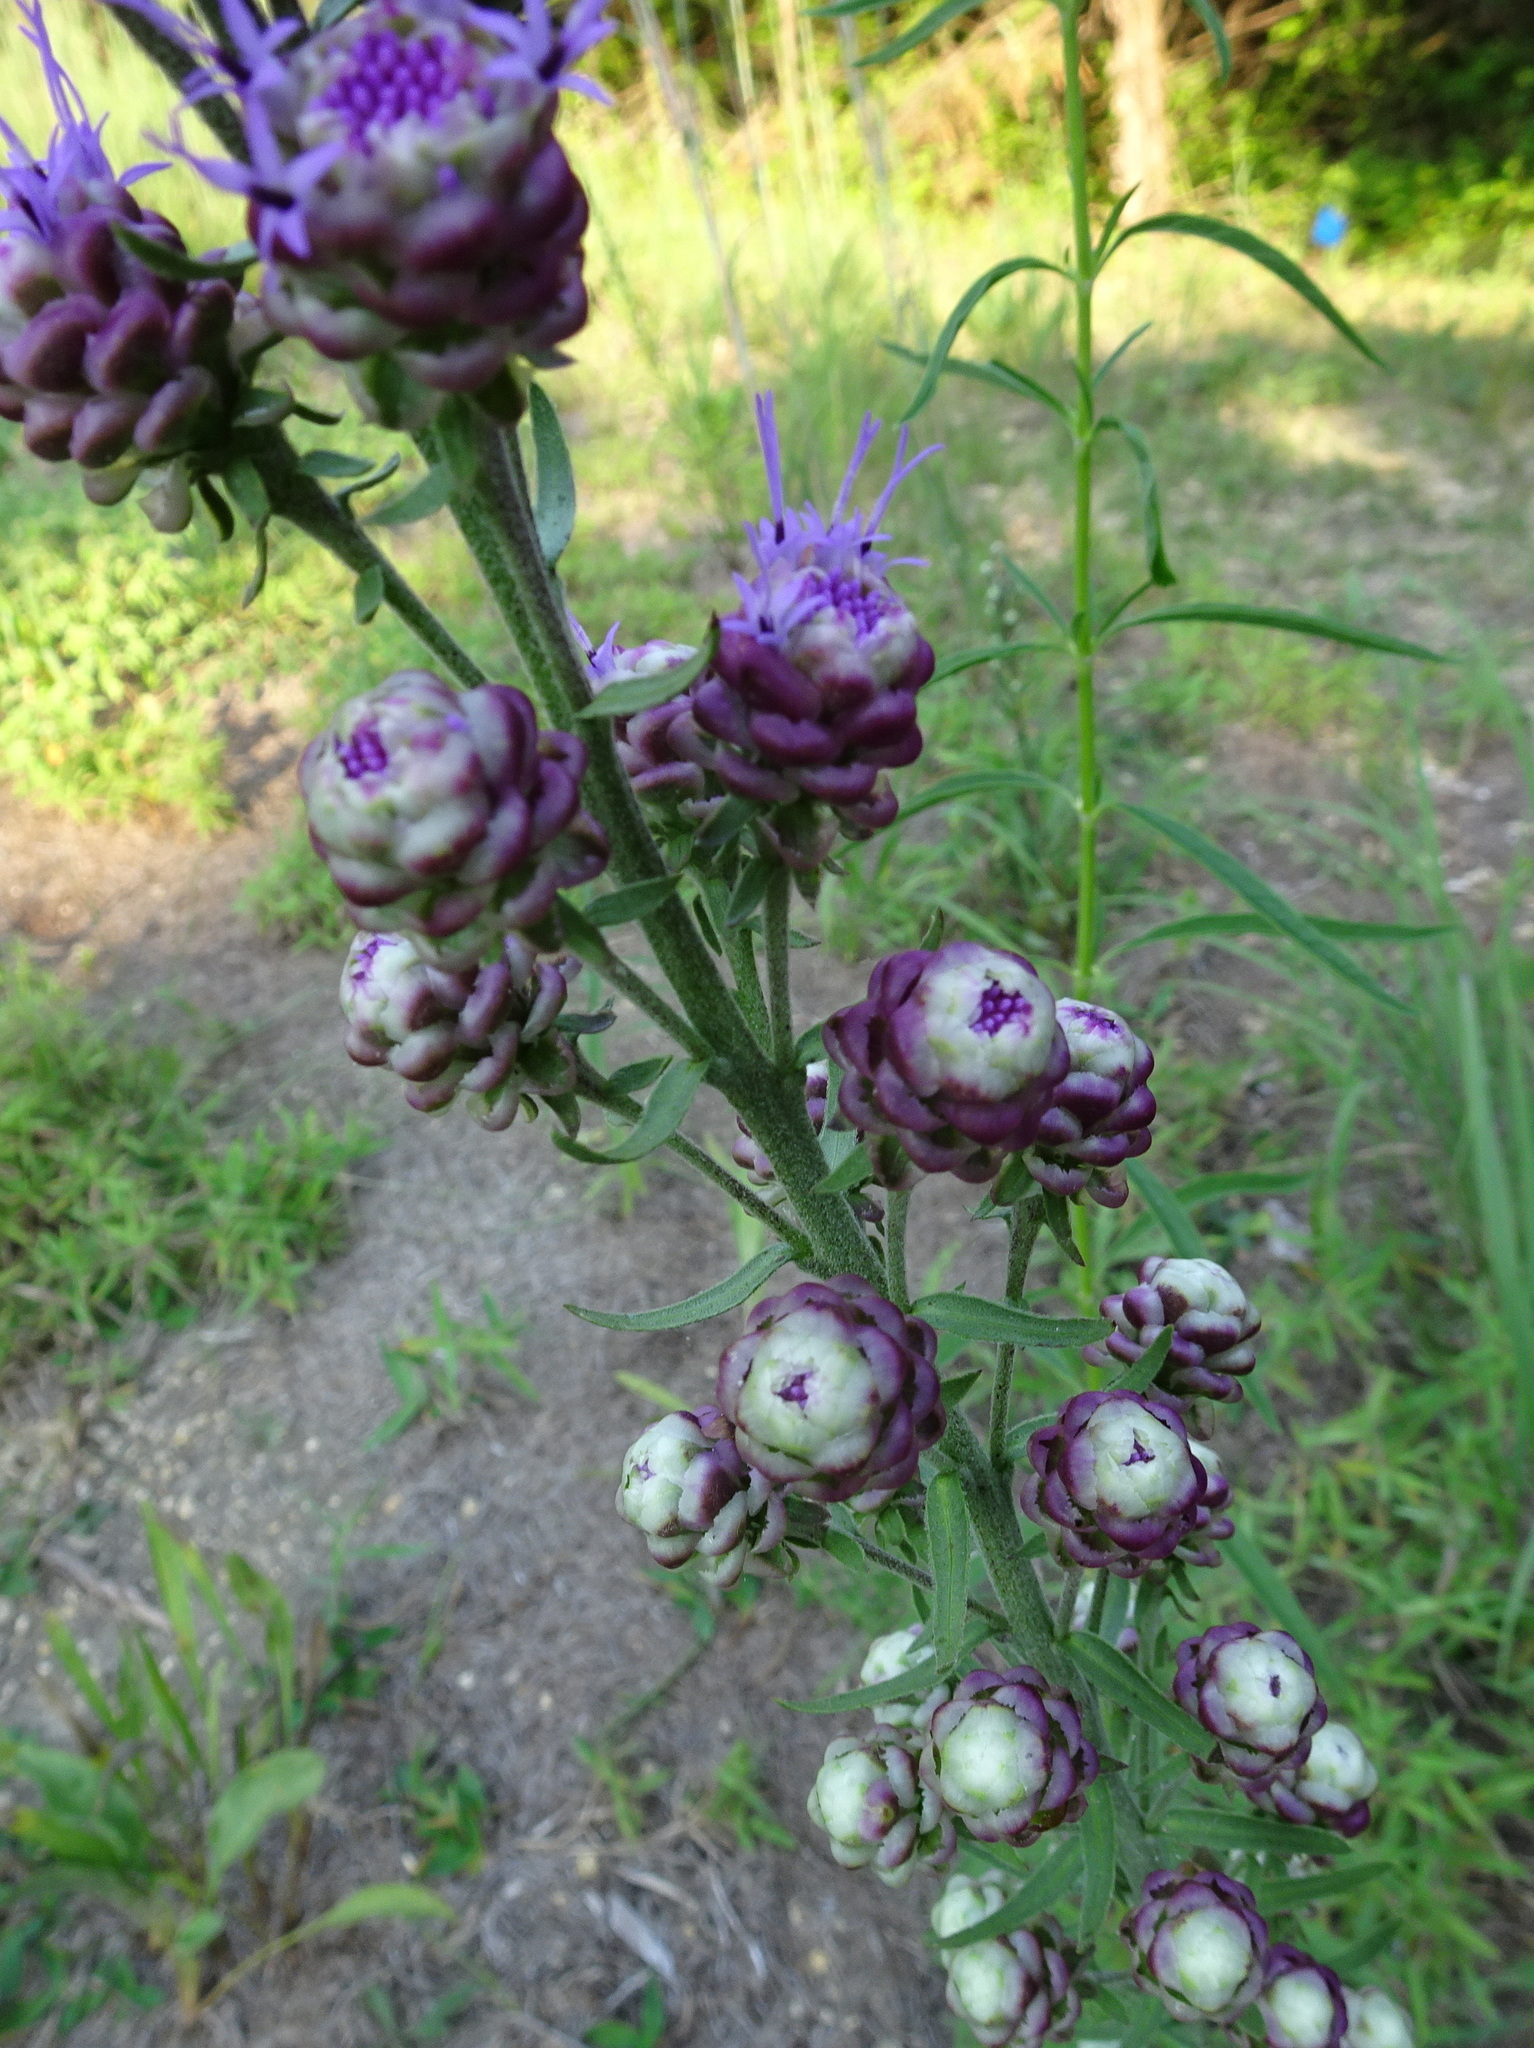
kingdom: Plantae
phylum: Tracheophyta
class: Magnoliopsida
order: Asterales
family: Asteraceae
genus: Liatris
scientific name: Liatris aspera
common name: Lacerate blazing-star
